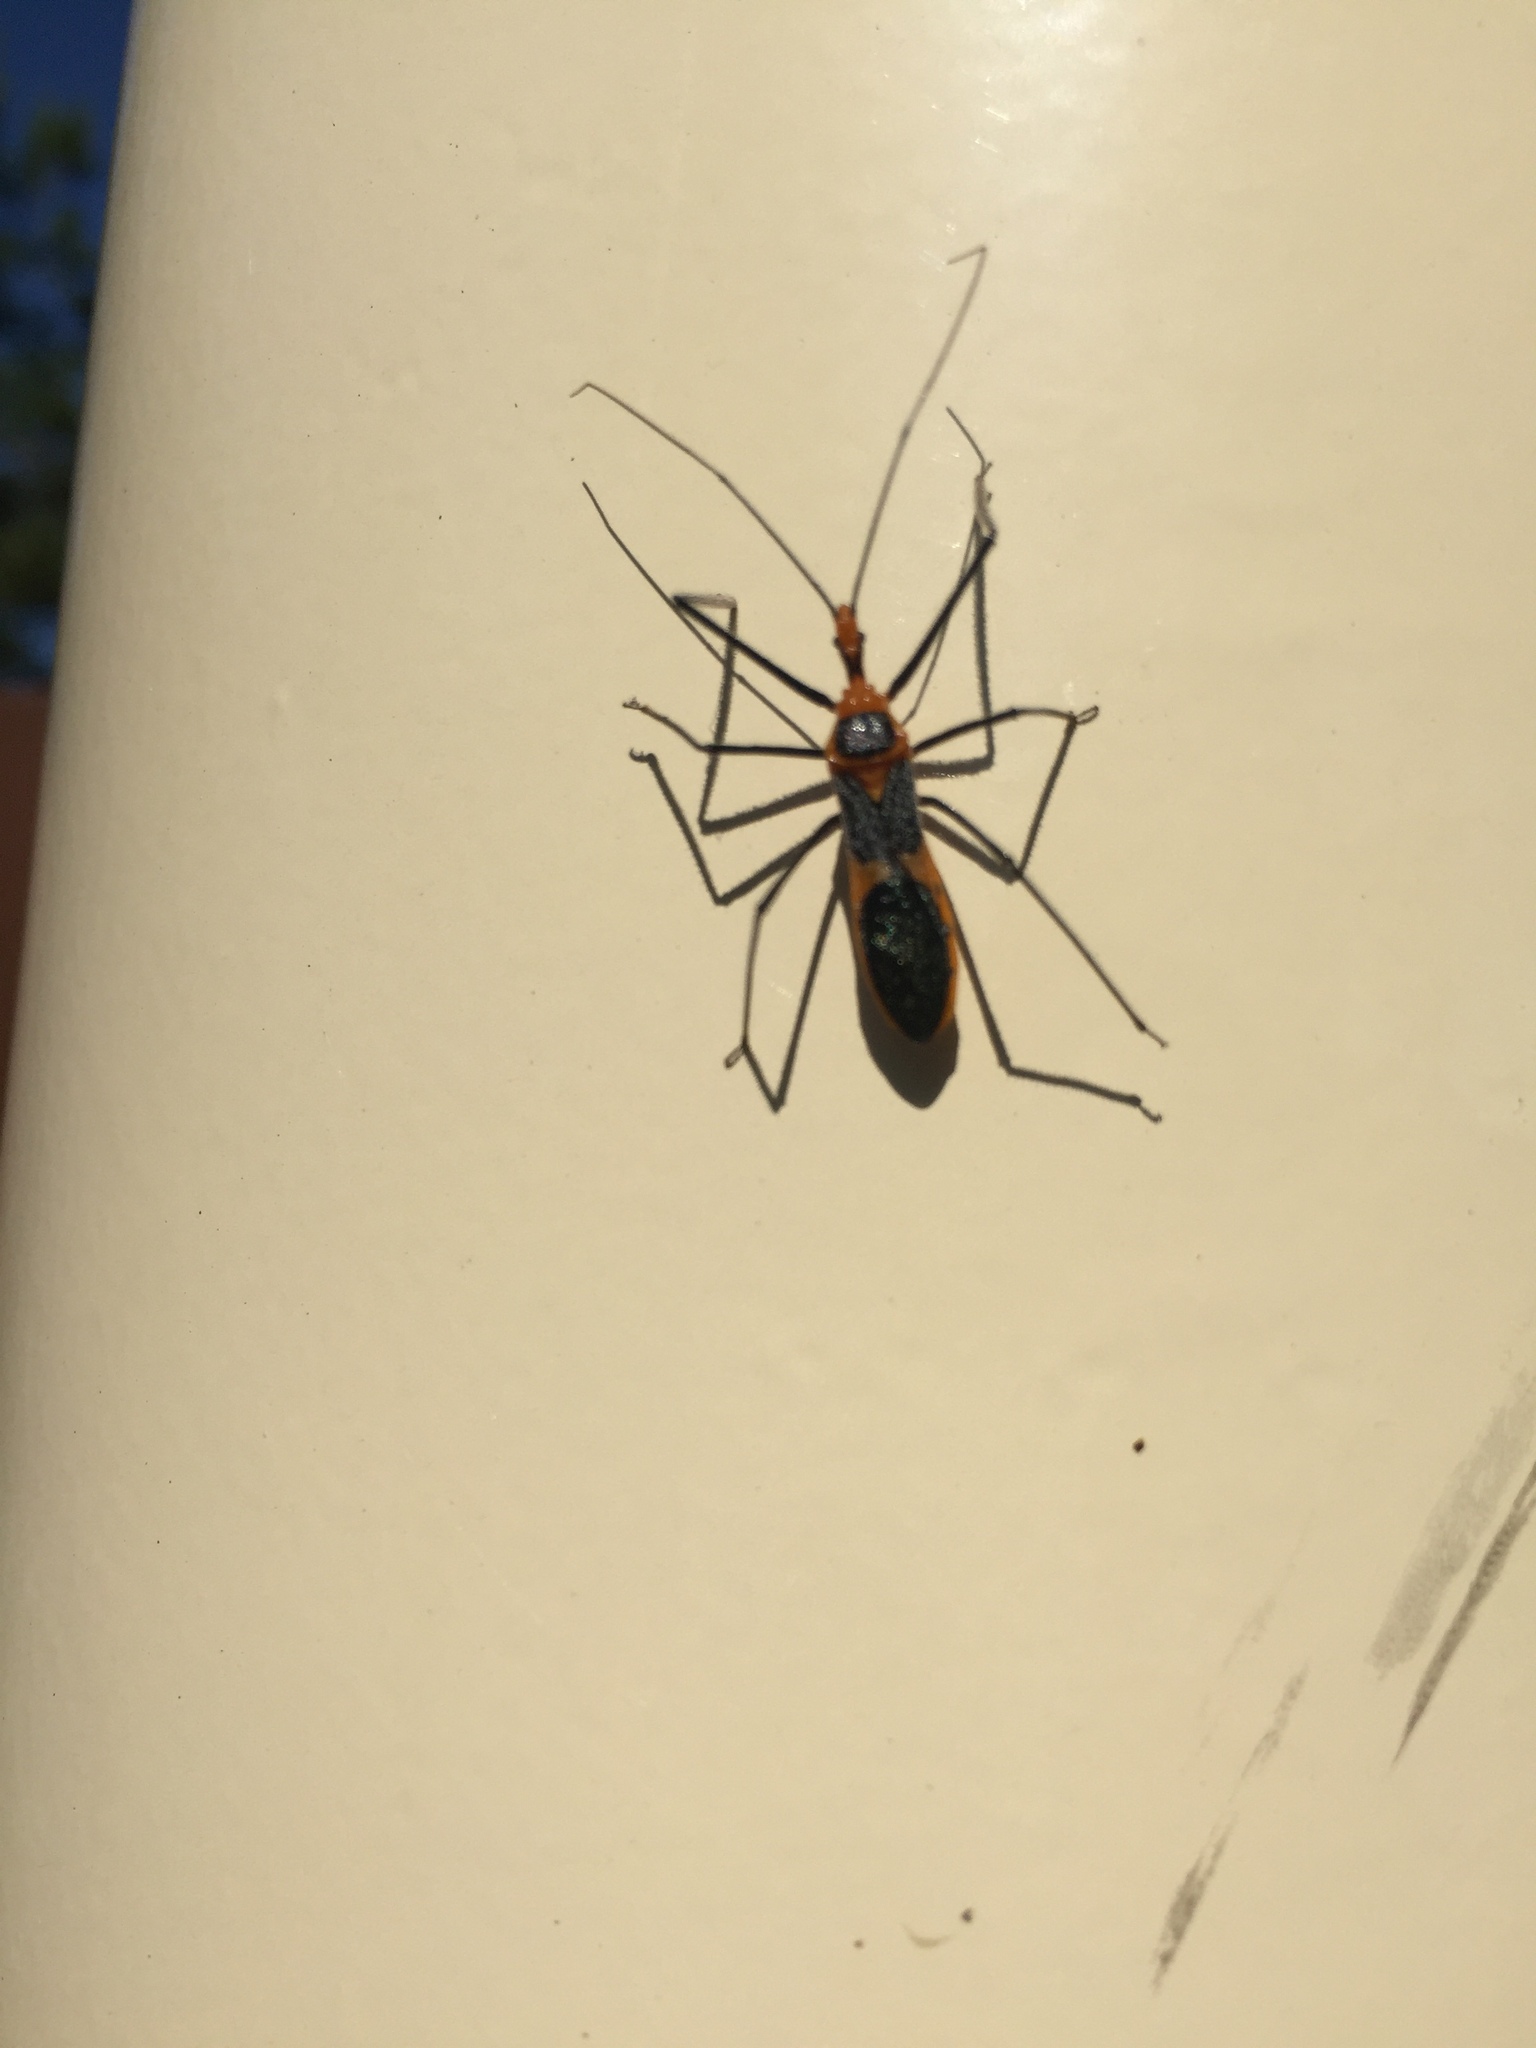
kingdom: Animalia
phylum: Arthropoda
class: Insecta
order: Hemiptera
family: Reduviidae
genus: Zelus
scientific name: Zelus longipes
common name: Milkweed assassin bug
